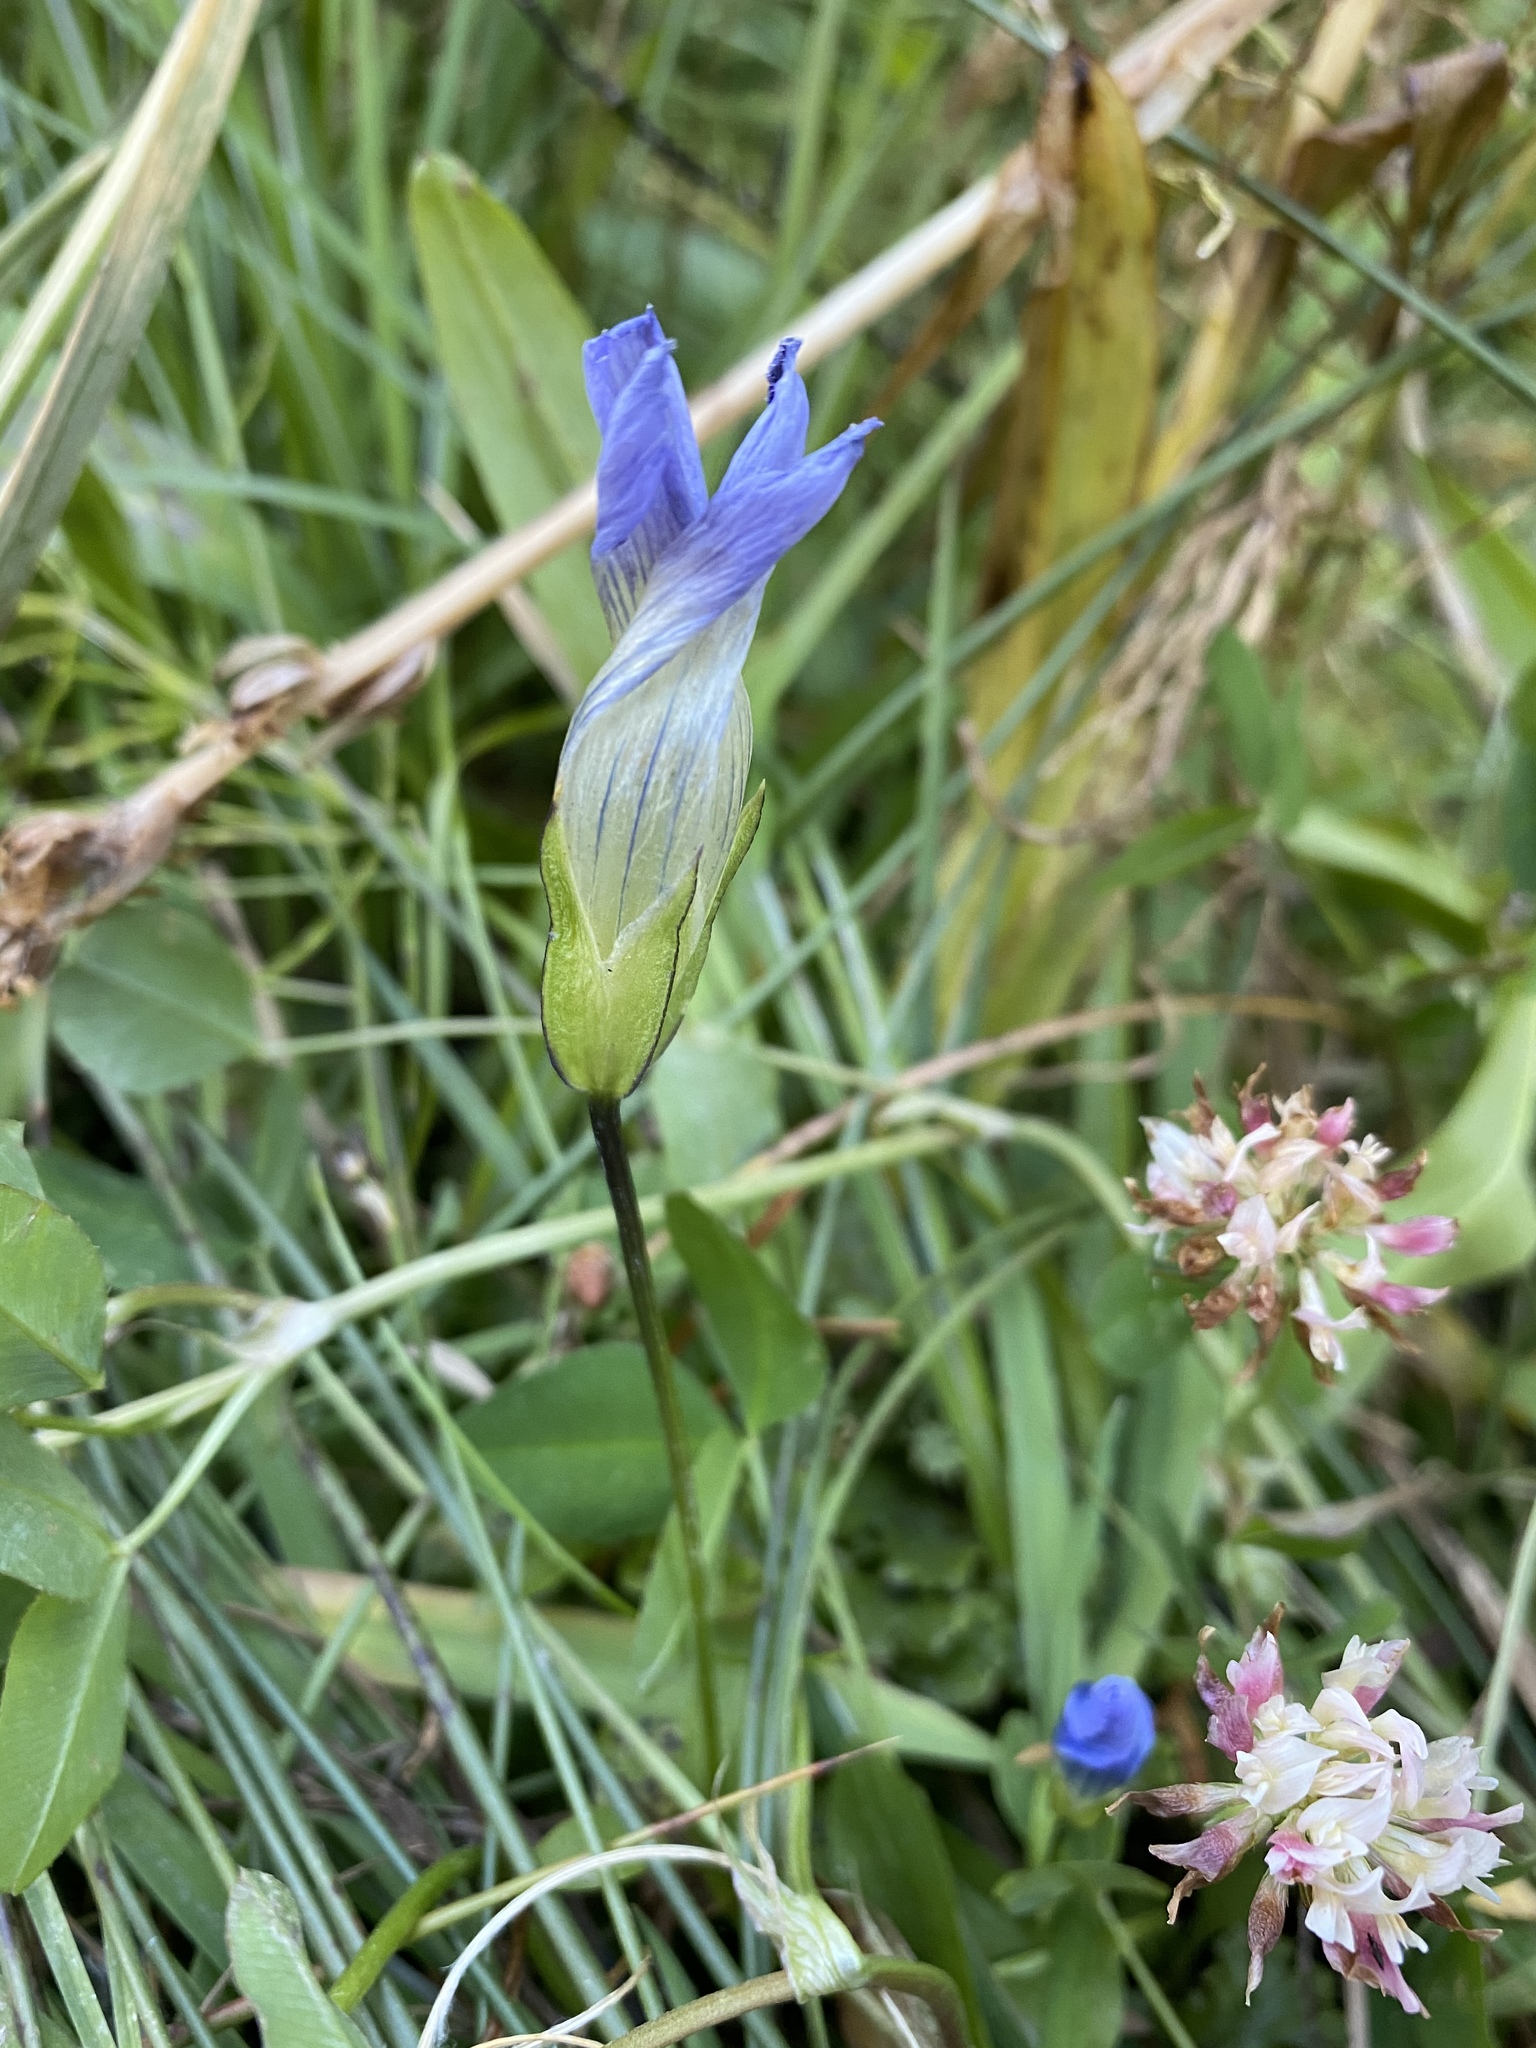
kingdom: Plantae
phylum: Tracheophyta
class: Magnoliopsida
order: Gentianales
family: Gentianaceae
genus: Gentianopsis
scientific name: Gentianopsis thermalis
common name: Rocky mountain fringed-gentian
